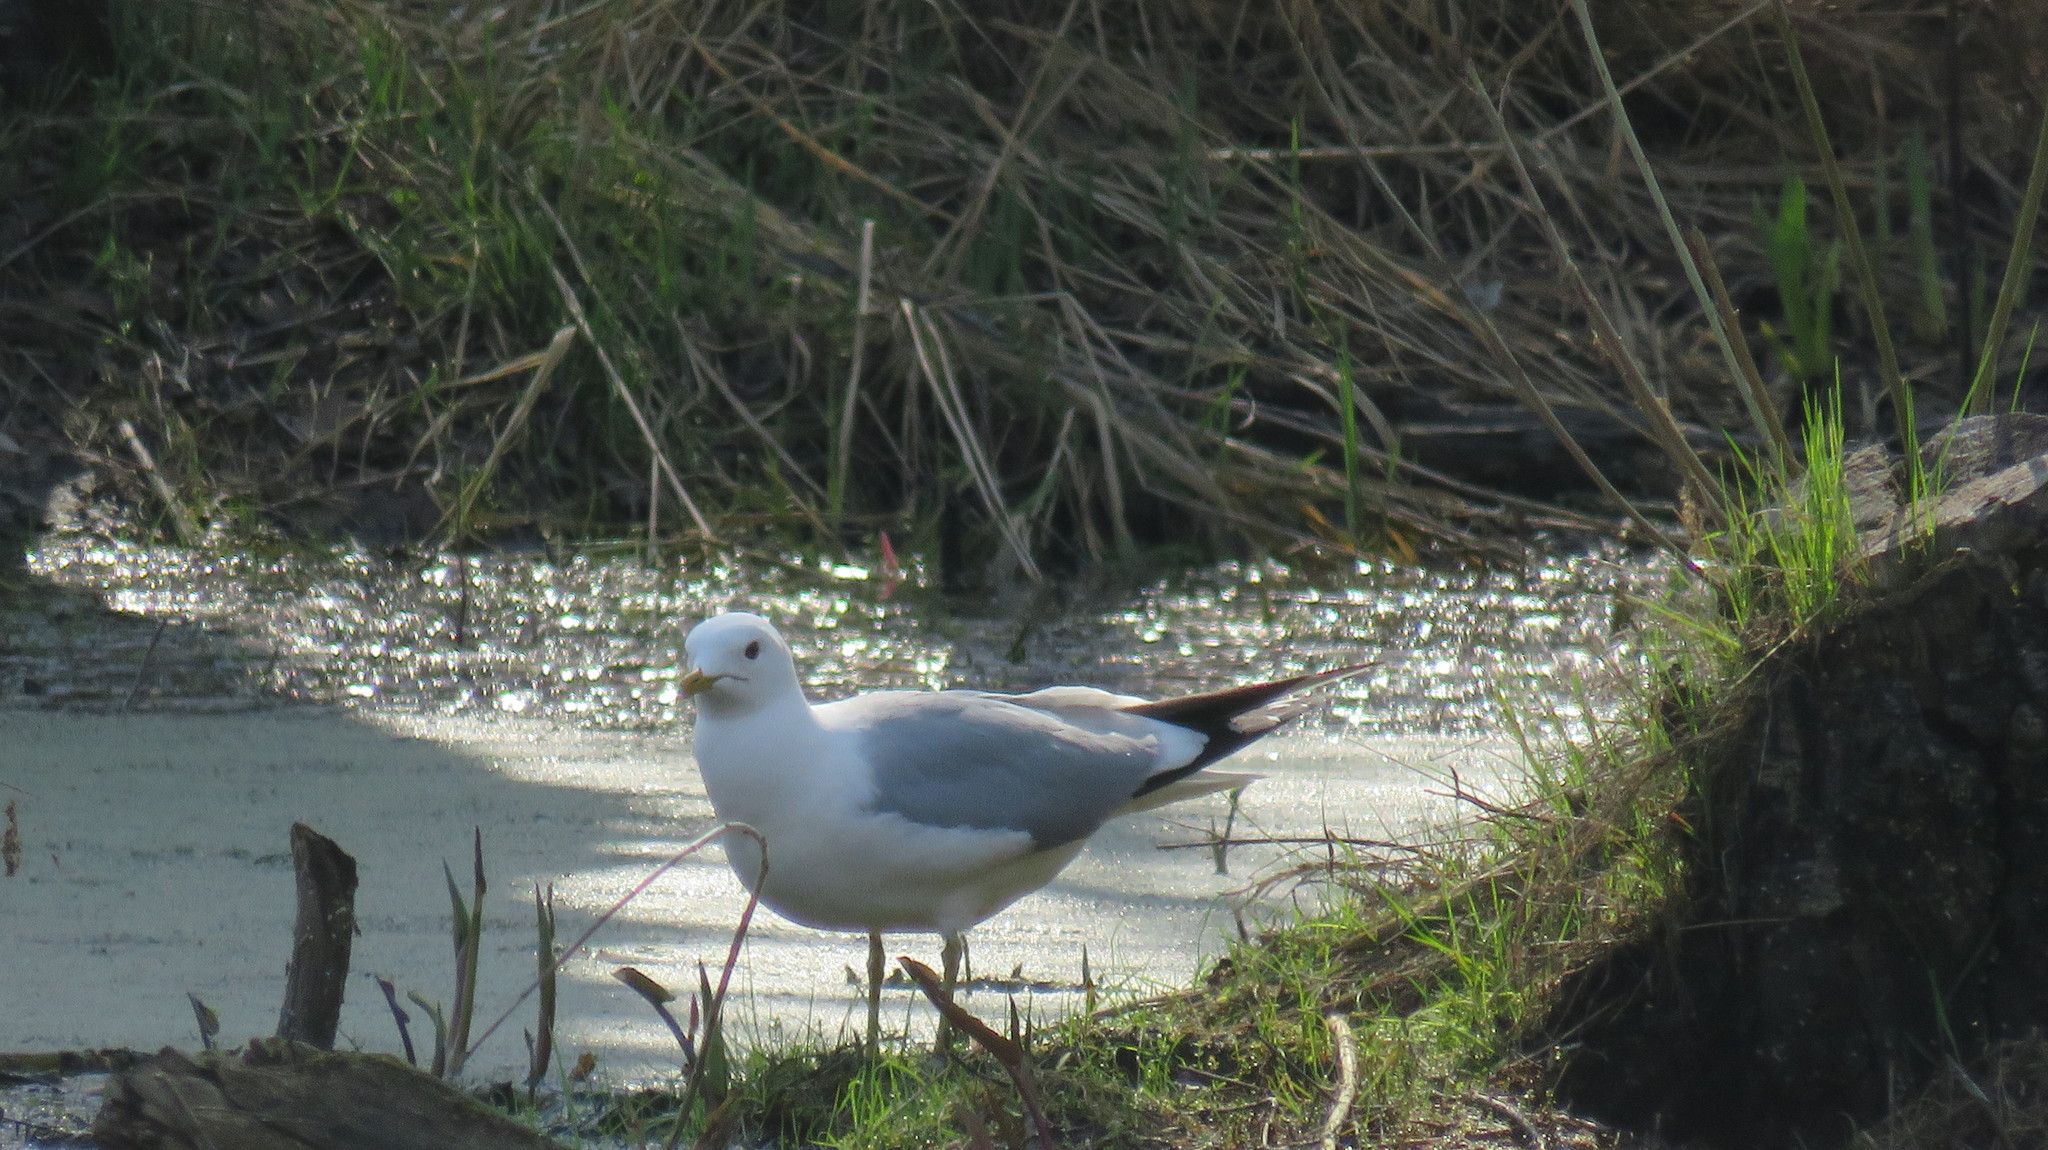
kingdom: Animalia
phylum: Chordata
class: Aves
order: Charadriiformes
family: Laridae
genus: Larus
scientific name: Larus canus
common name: Mew gull
